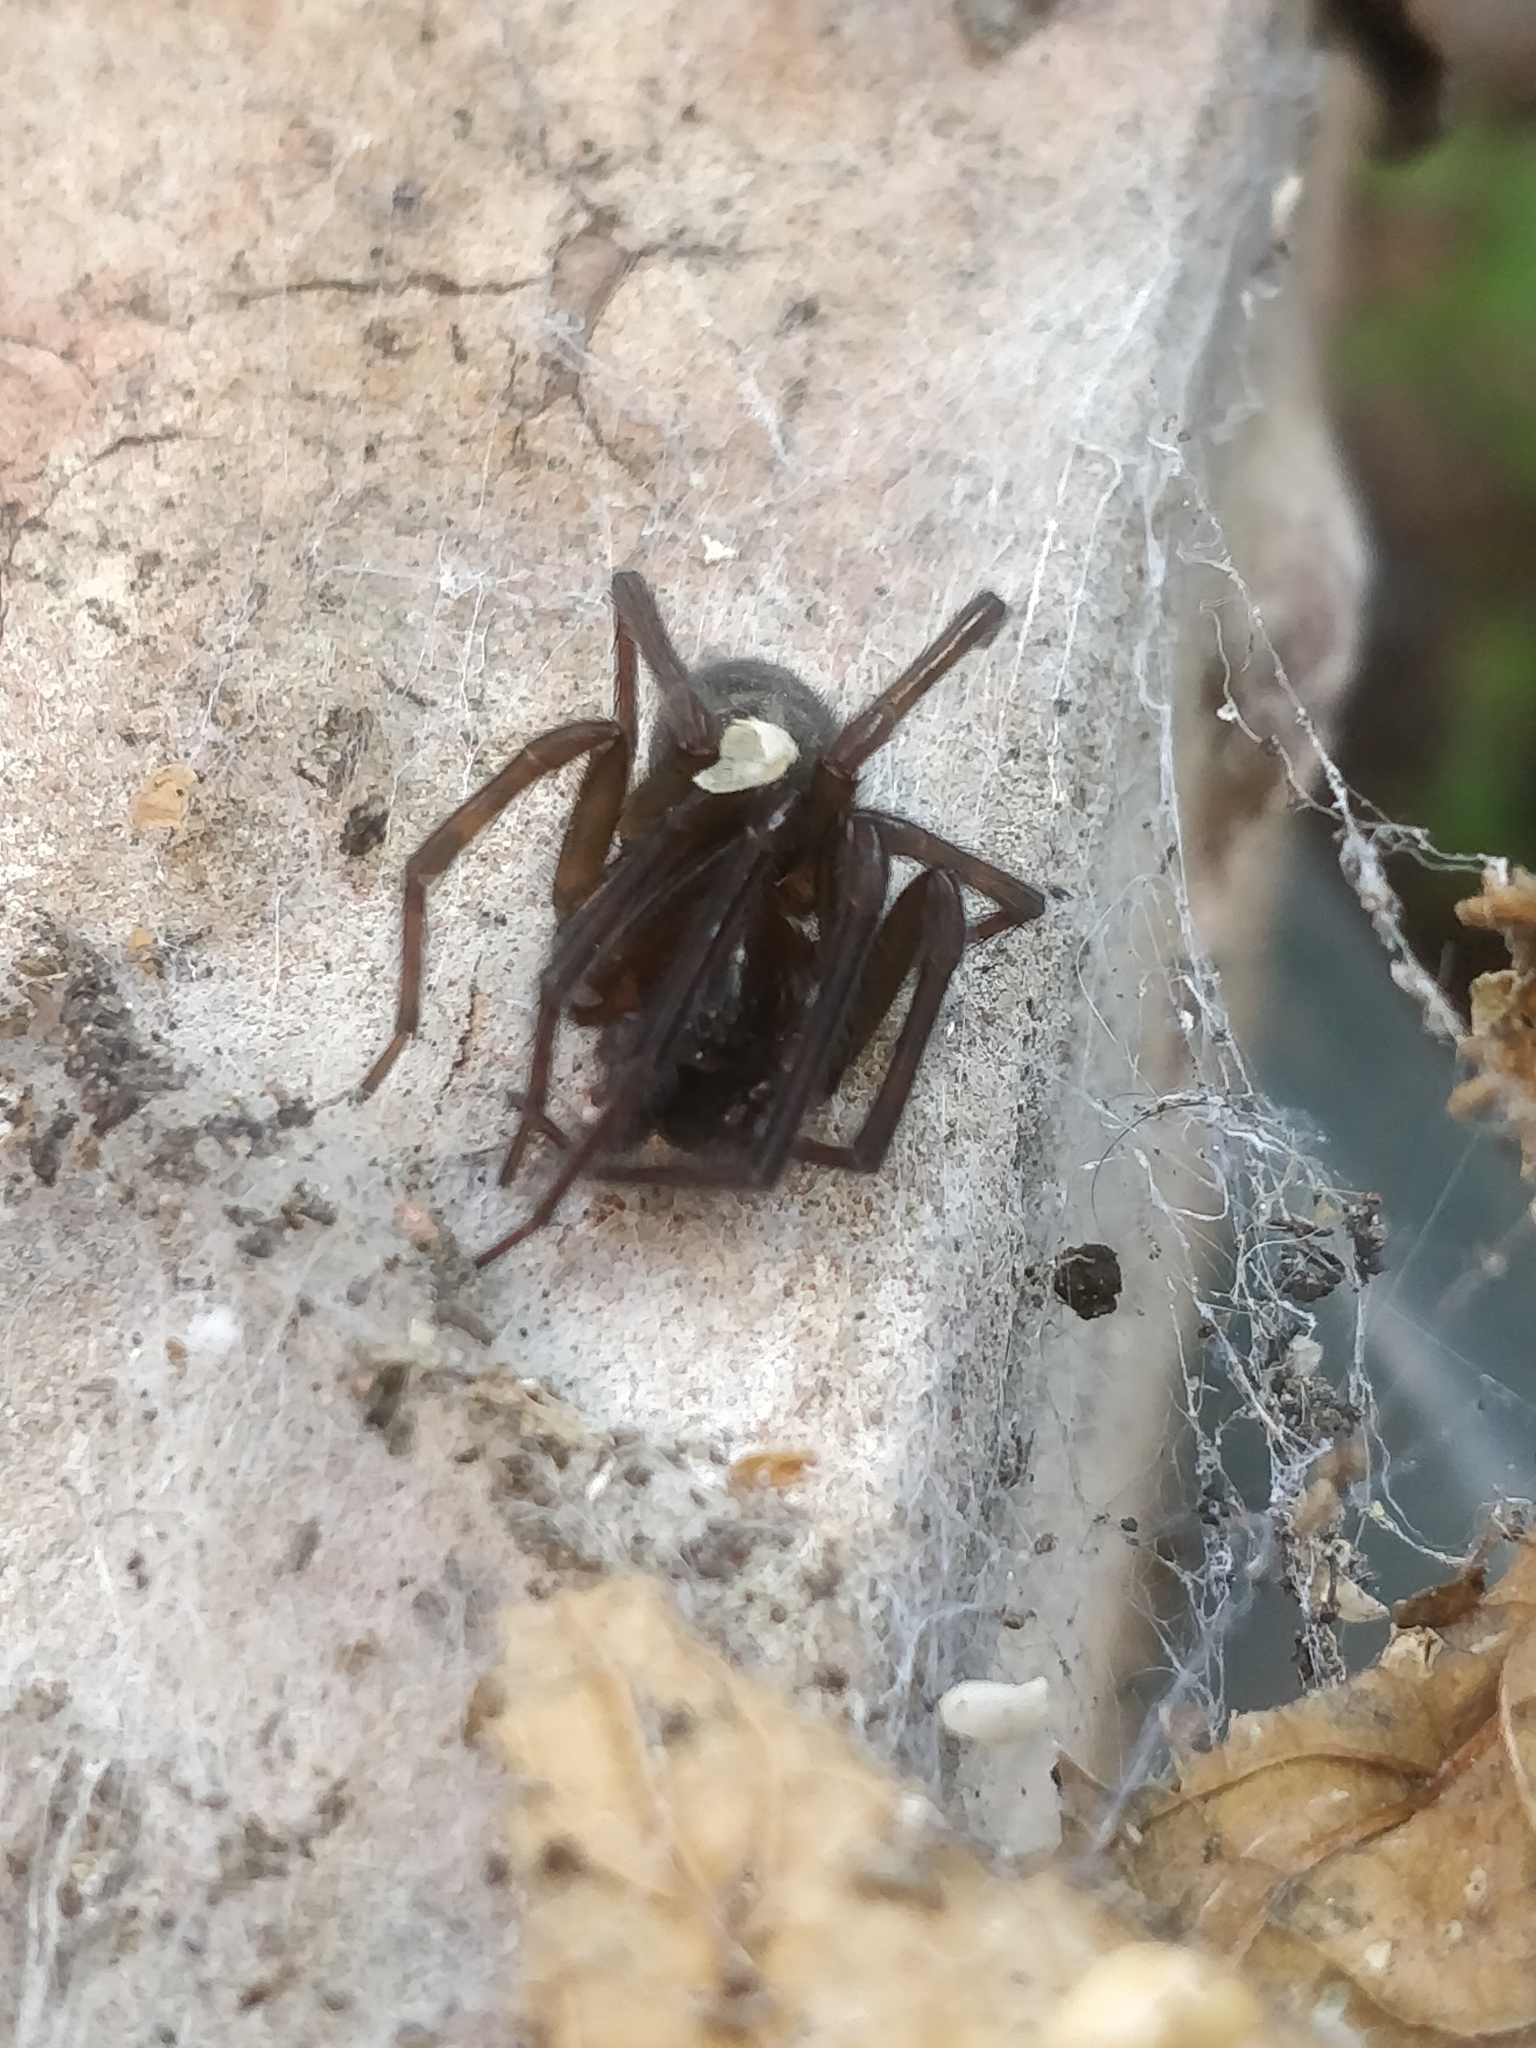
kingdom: Animalia
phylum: Arthropoda
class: Arachnida
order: Araneae
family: Amaurobiidae
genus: Amaurobius
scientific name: Amaurobius ferox
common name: Black laceweaver
